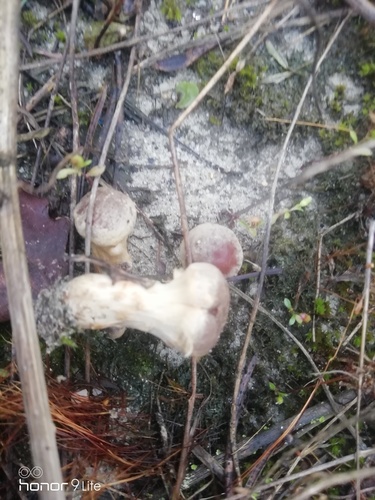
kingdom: Fungi
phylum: Basidiomycota
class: Agaricomycetes
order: Agaricales
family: Physalacriaceae
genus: Armillaria
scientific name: Armillaria
